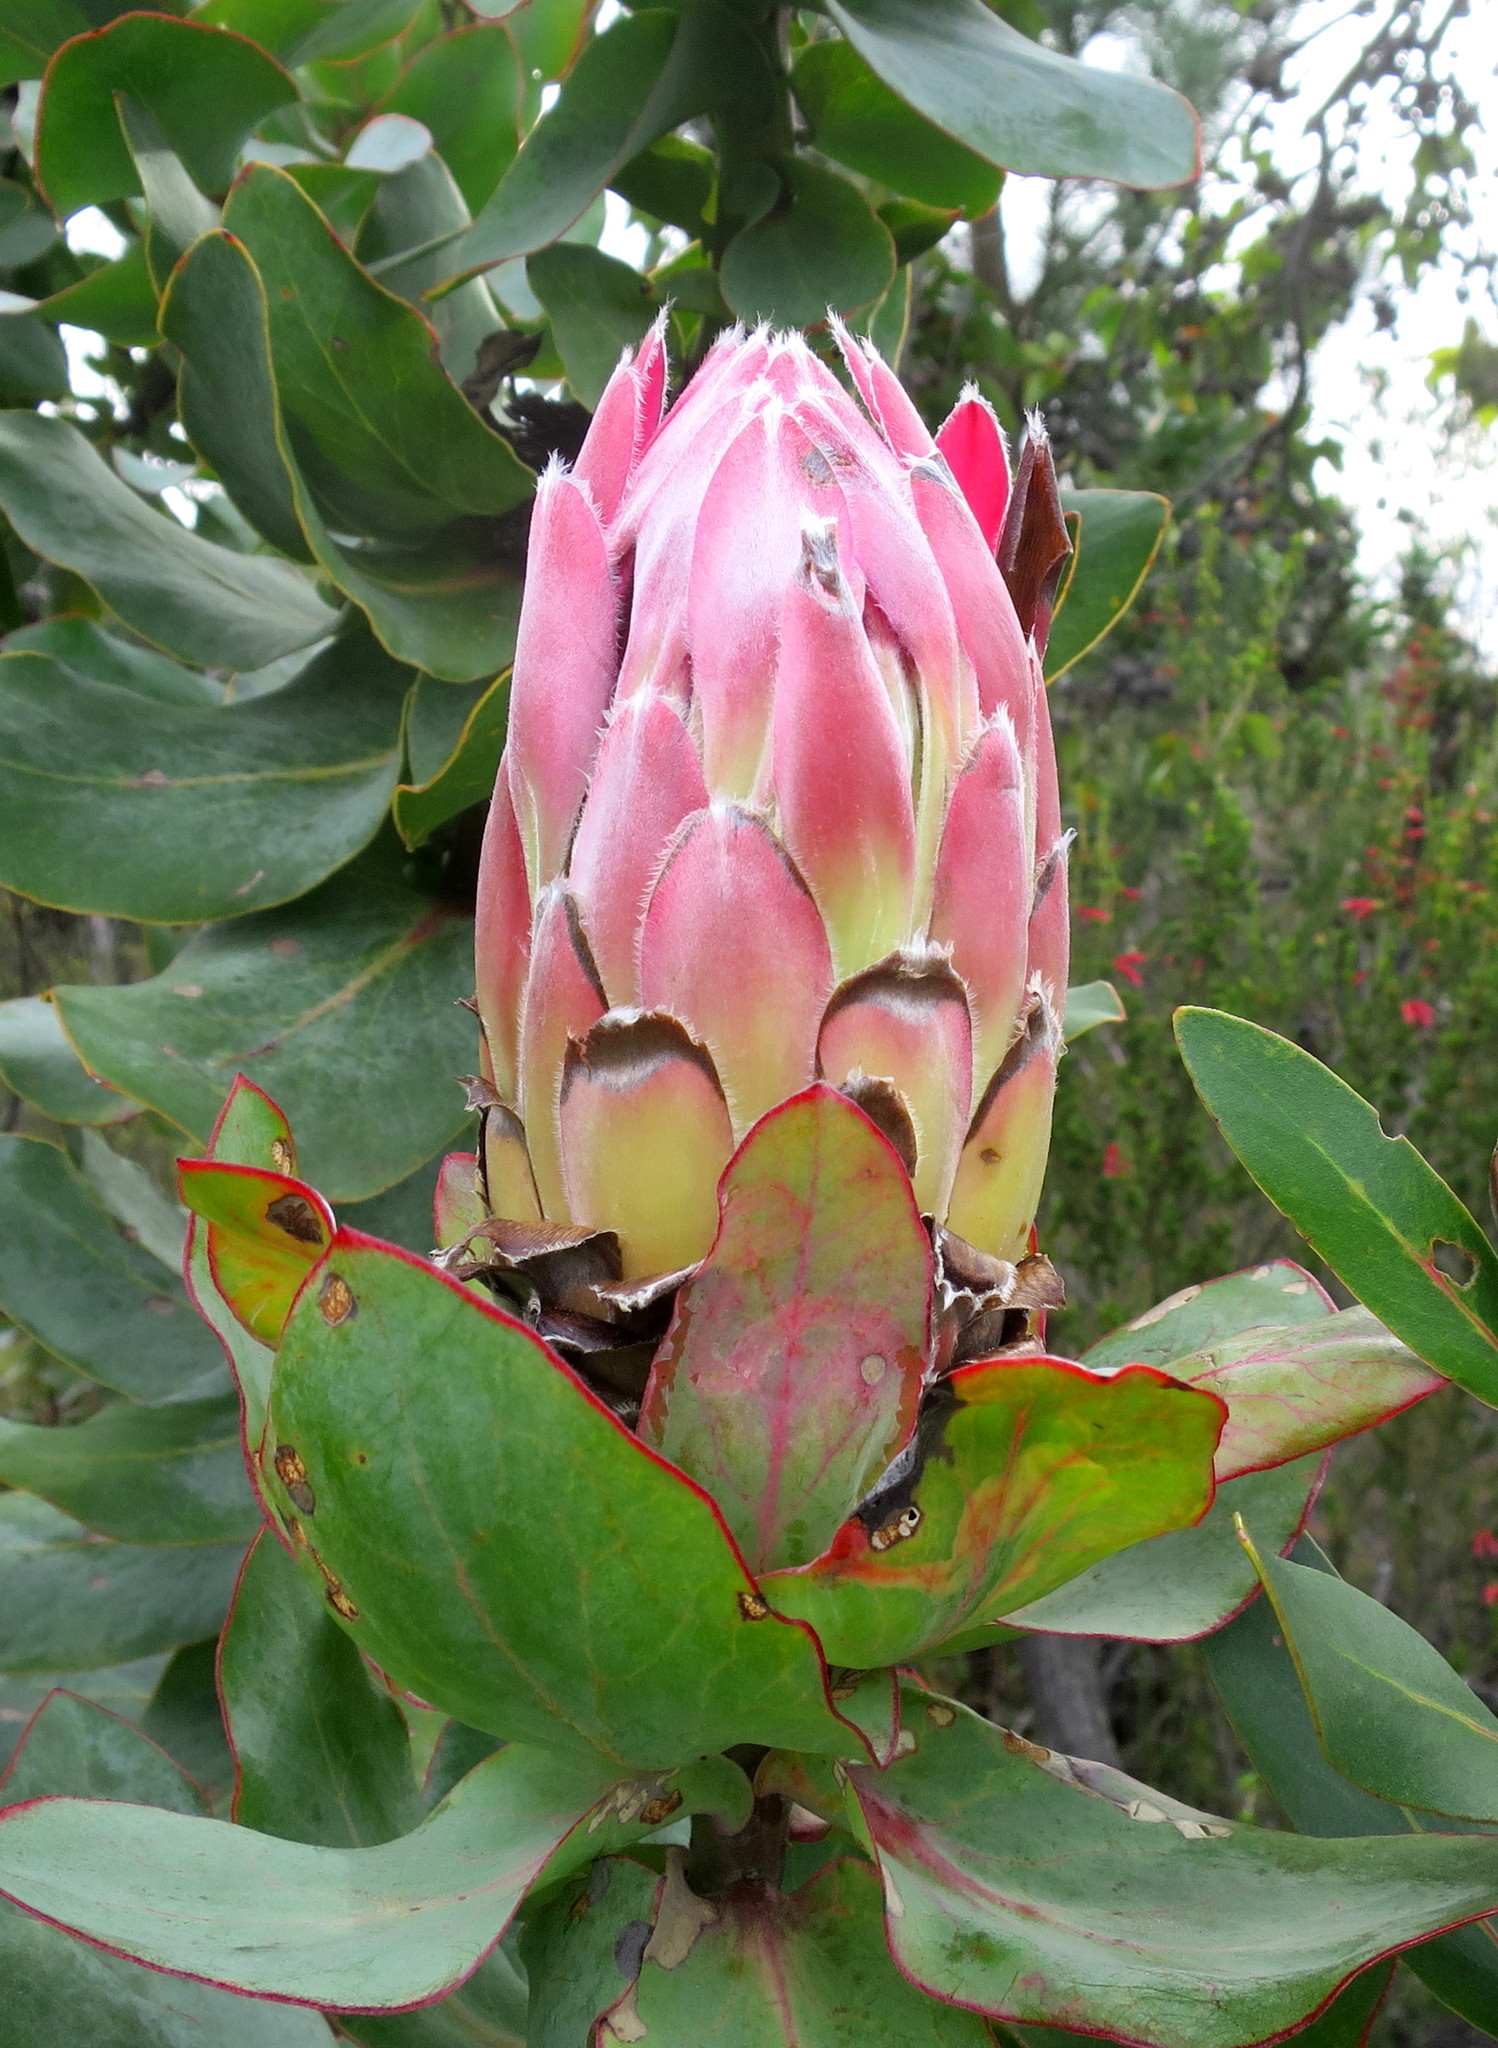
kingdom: Plantae
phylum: Tracheophyta
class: Magnoliopsida
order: Proteales
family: Proteaceae
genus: Protea
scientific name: Protea eximia
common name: Broad-leaved sugarbush
